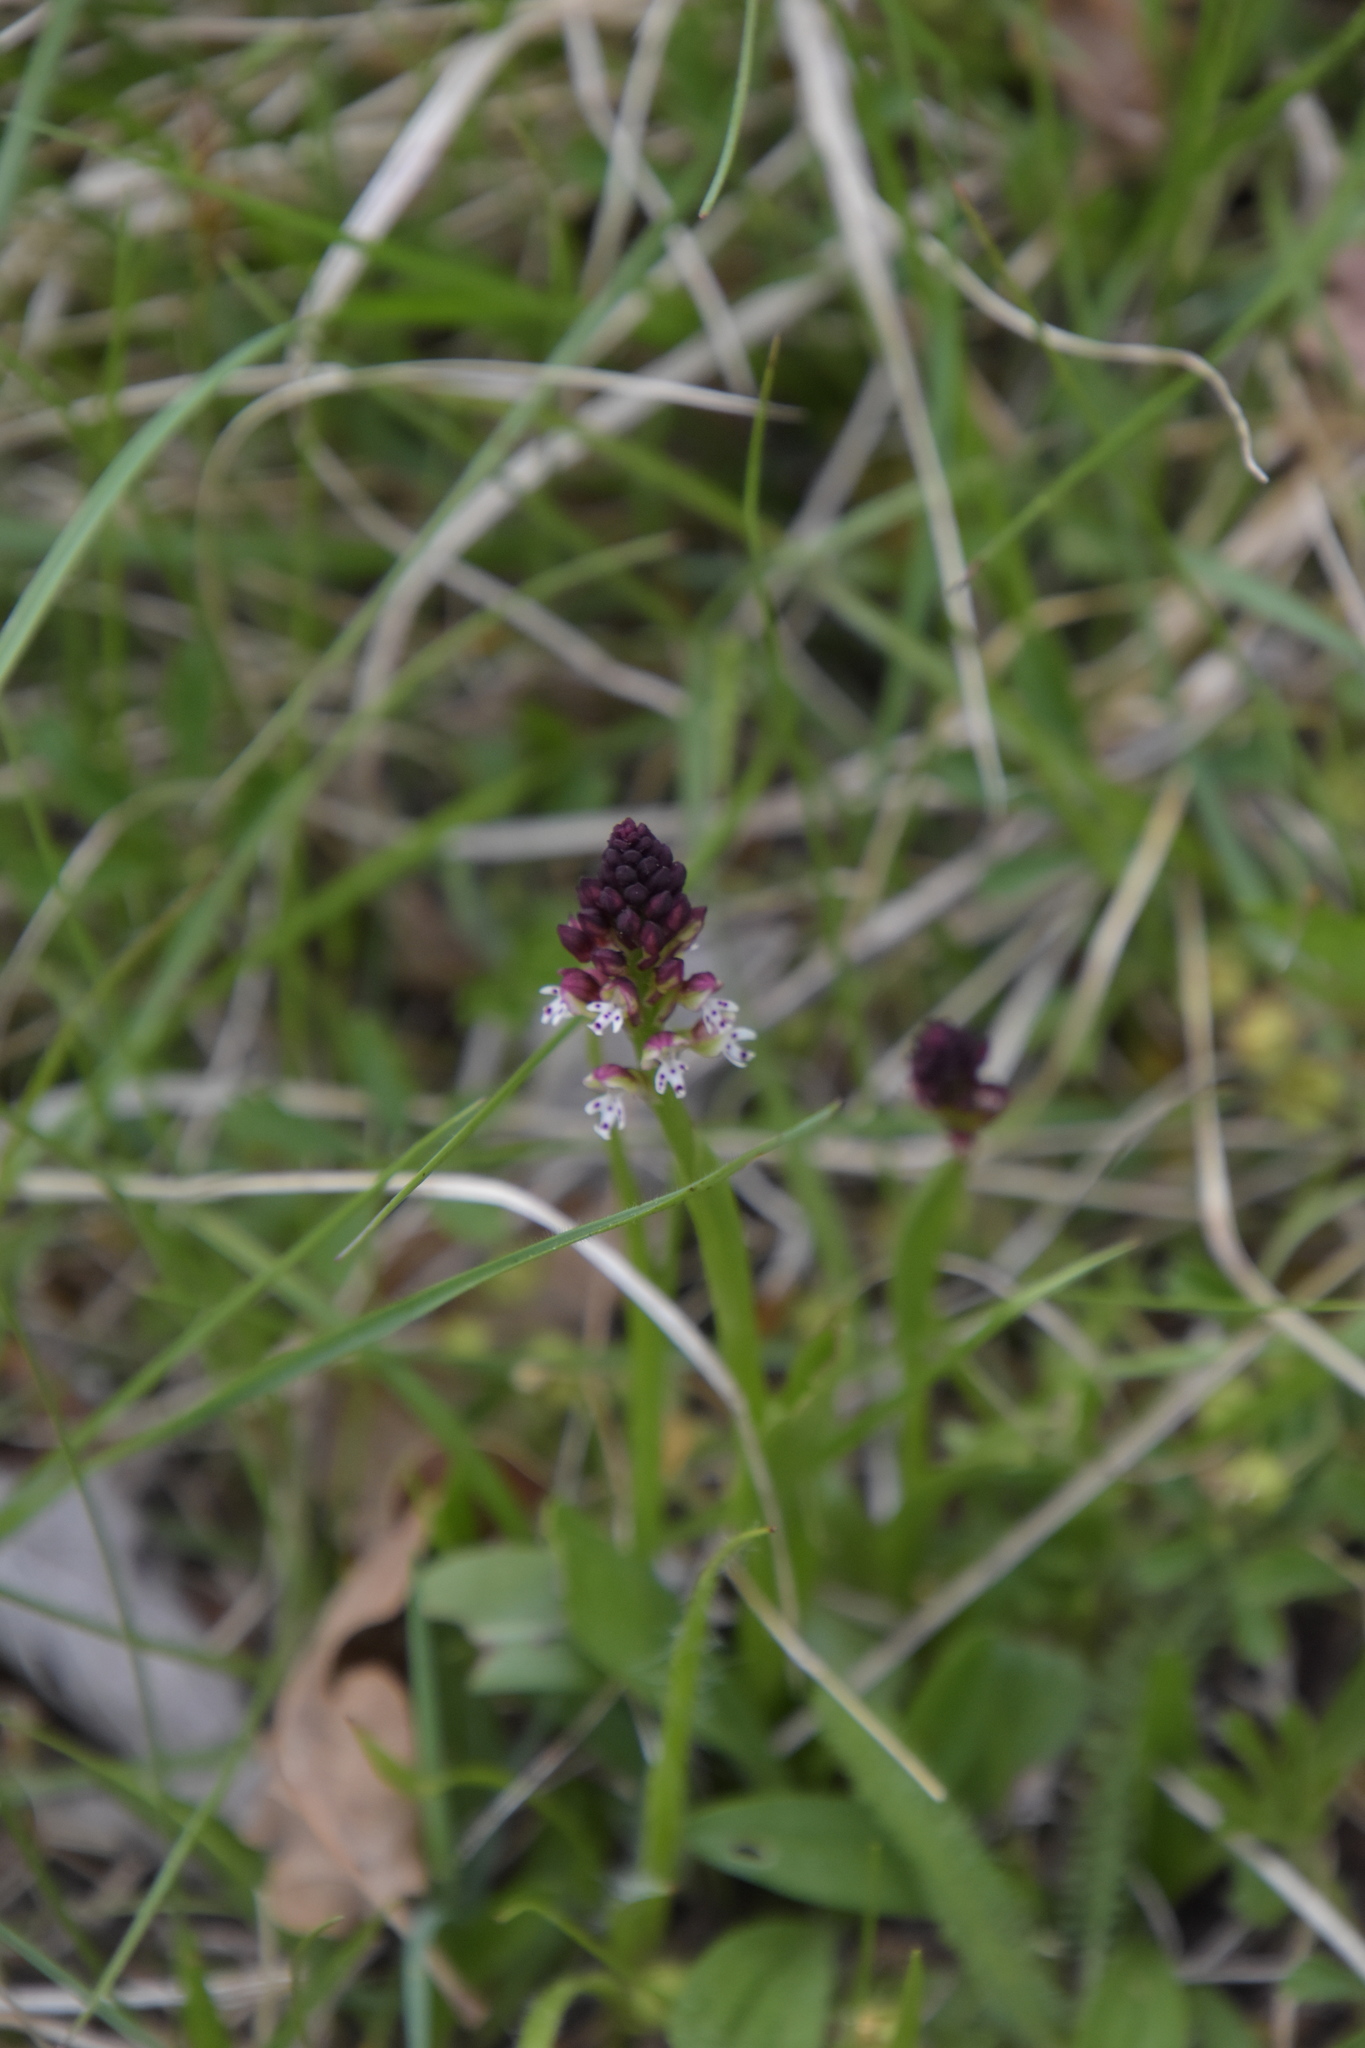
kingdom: Plantae
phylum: Tracheophyta
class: Liliopsida
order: Asparagales
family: Orchidaceae
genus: Neotinea
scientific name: Neotinea ustulata
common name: Burnt orchid
